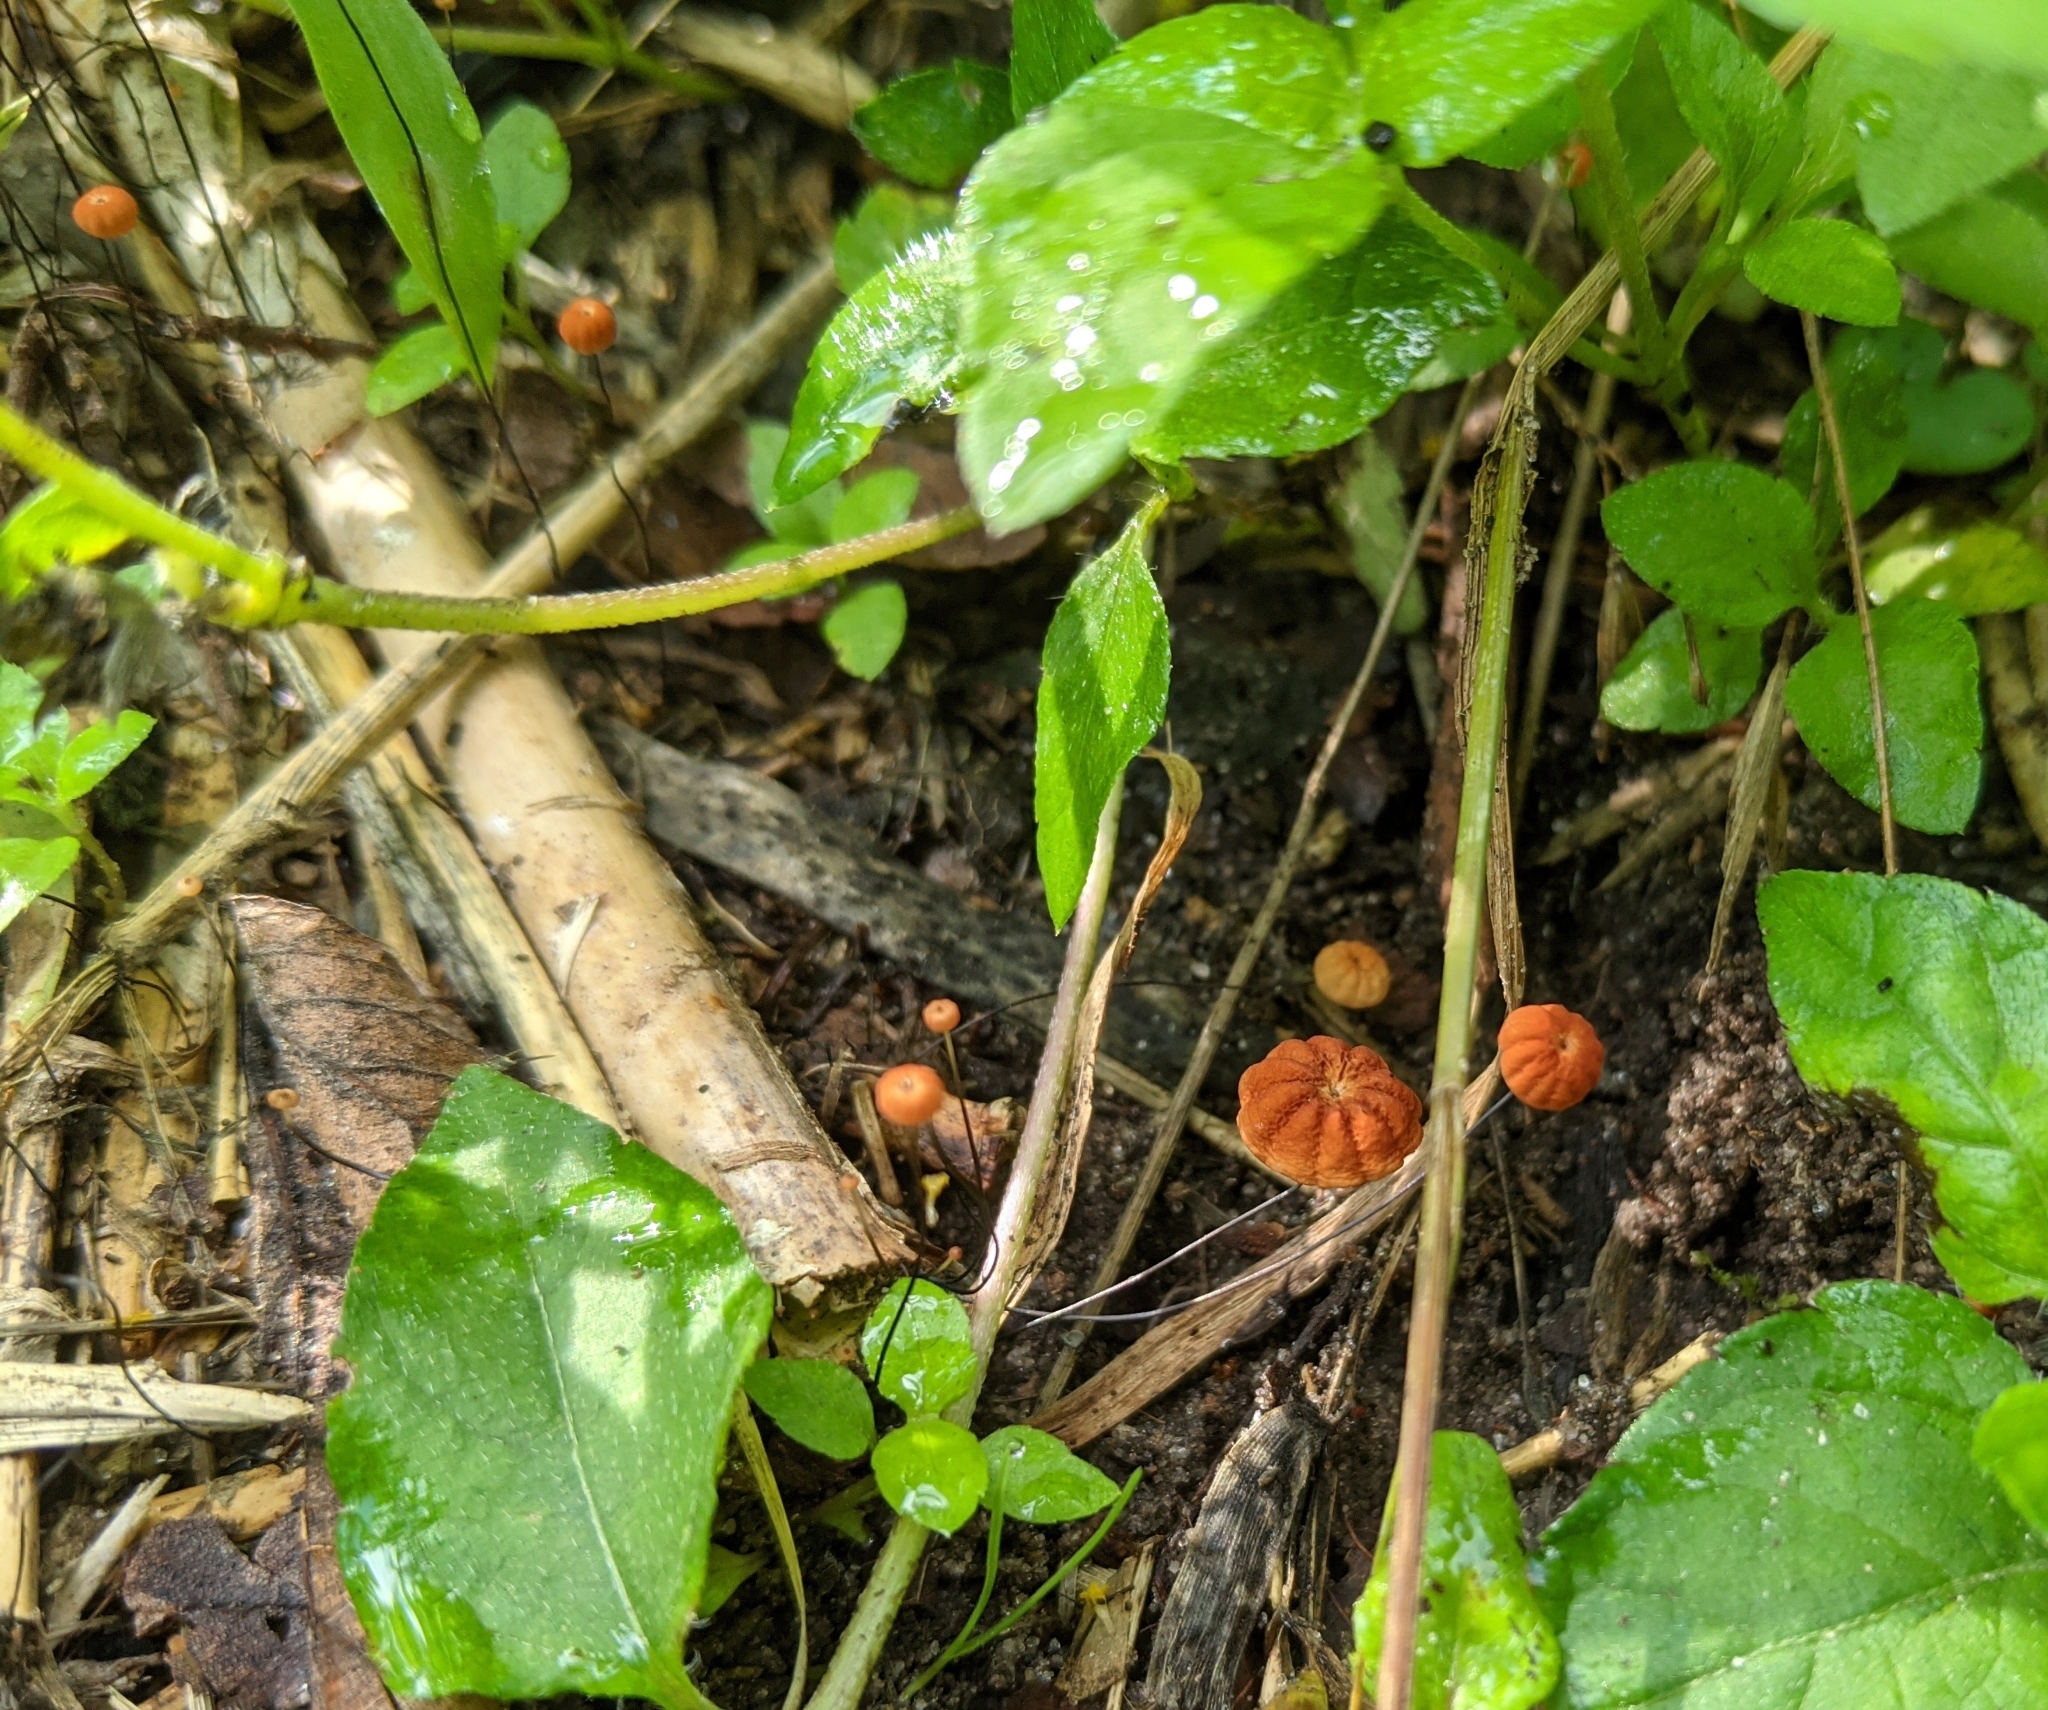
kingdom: Fungi
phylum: Basidiomycota
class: Agaricomycetes
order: Agaricales
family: Marasmiaceae
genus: Marasmius
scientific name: Marasmius siccus
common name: Orange pinwheel
